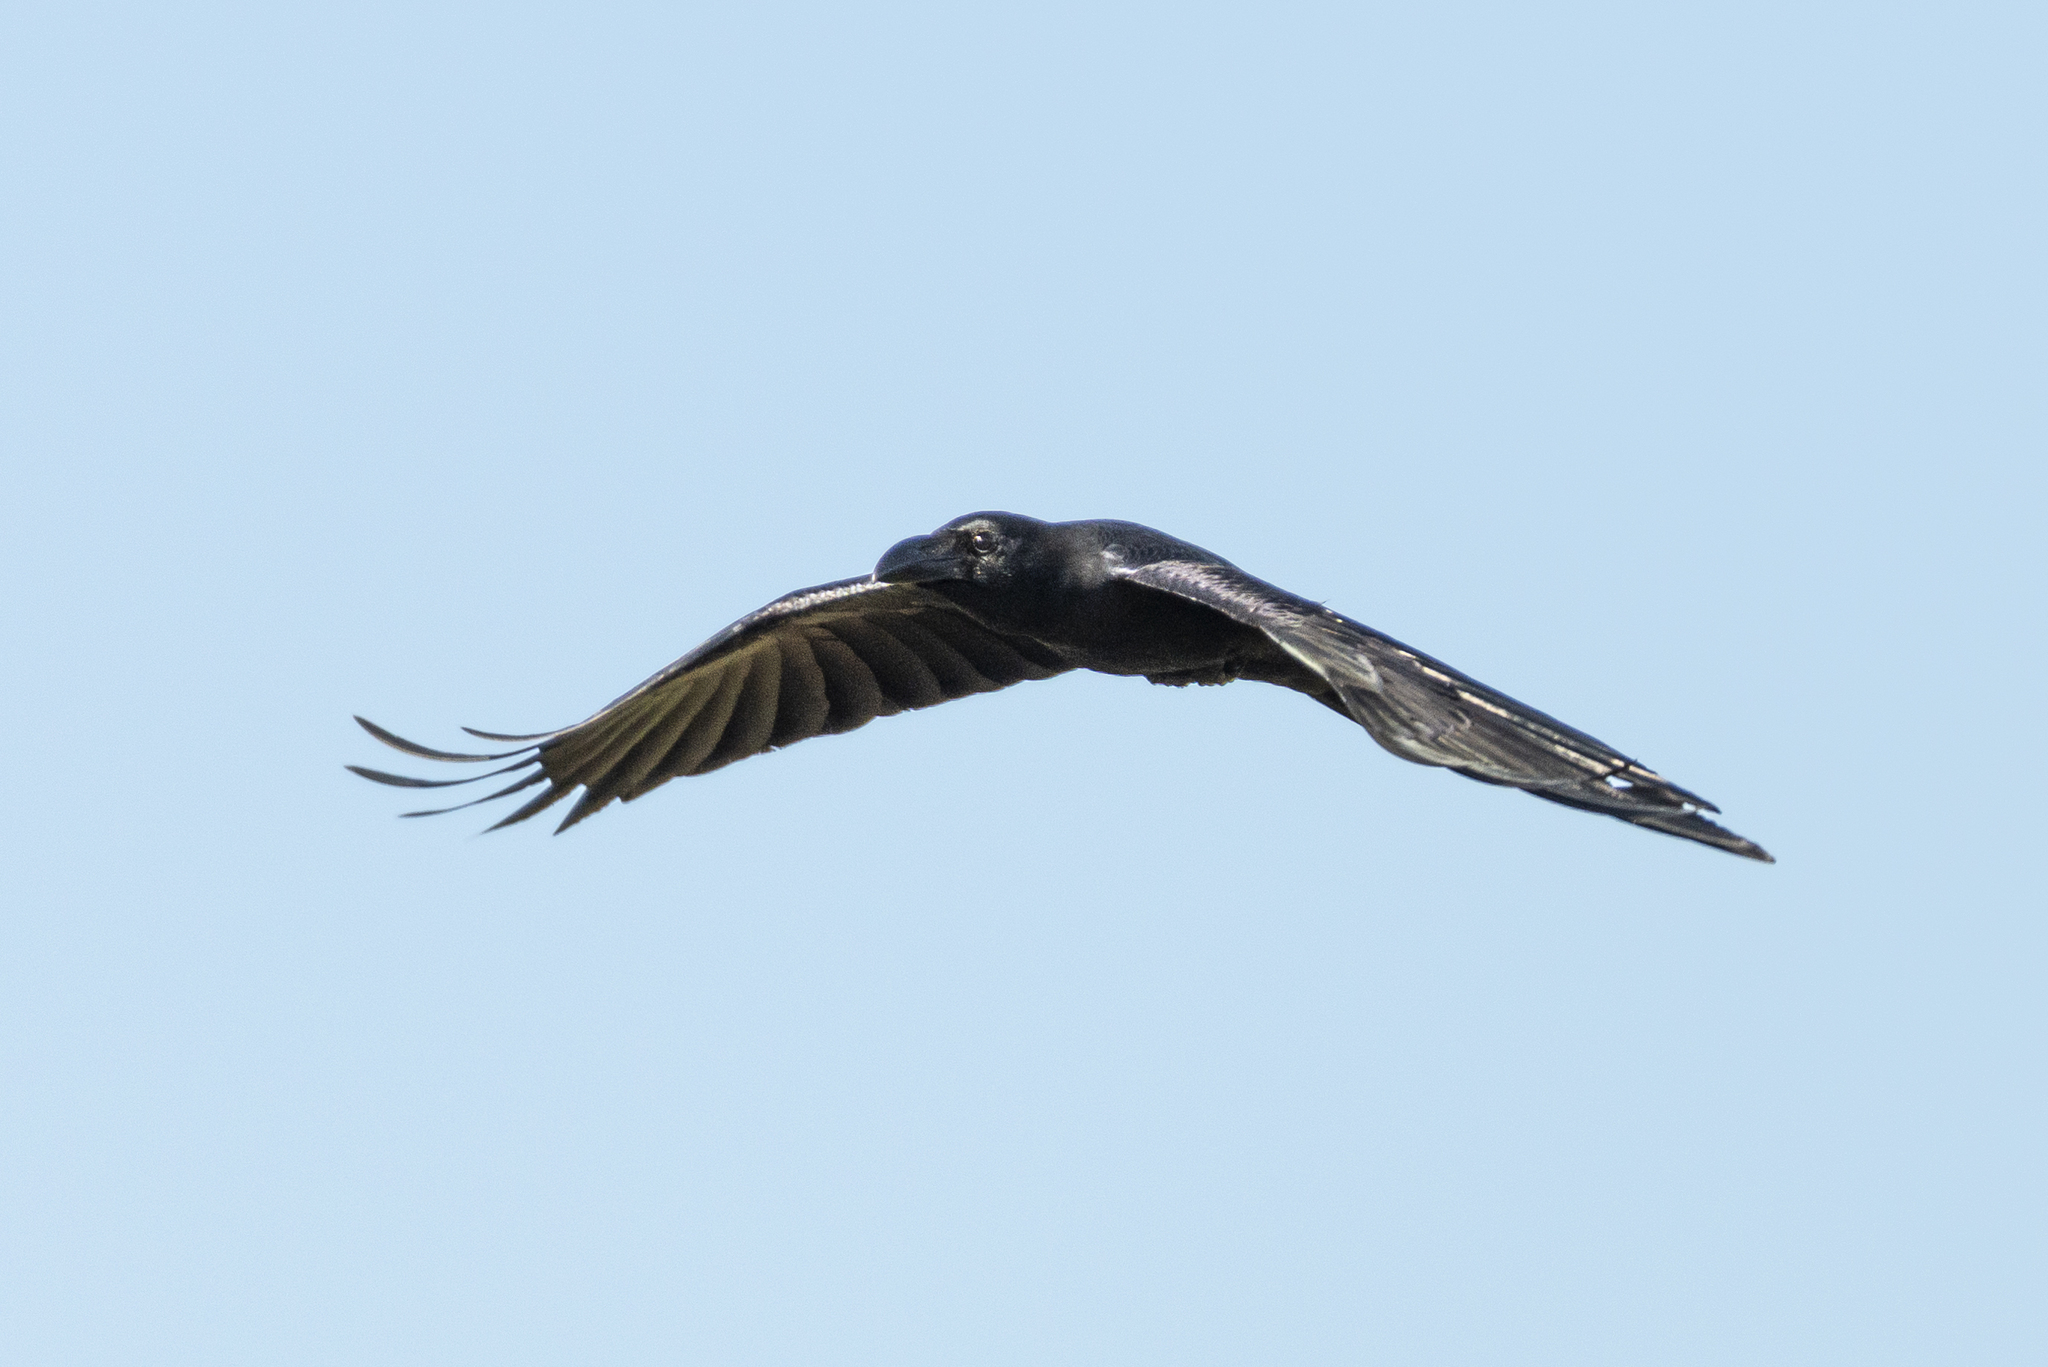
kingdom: Animalia
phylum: Chordata
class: Aves
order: Passeriformes
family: Corvidae
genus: Corvus
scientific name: Corvus macrorhynchos
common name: Large-billed crow
